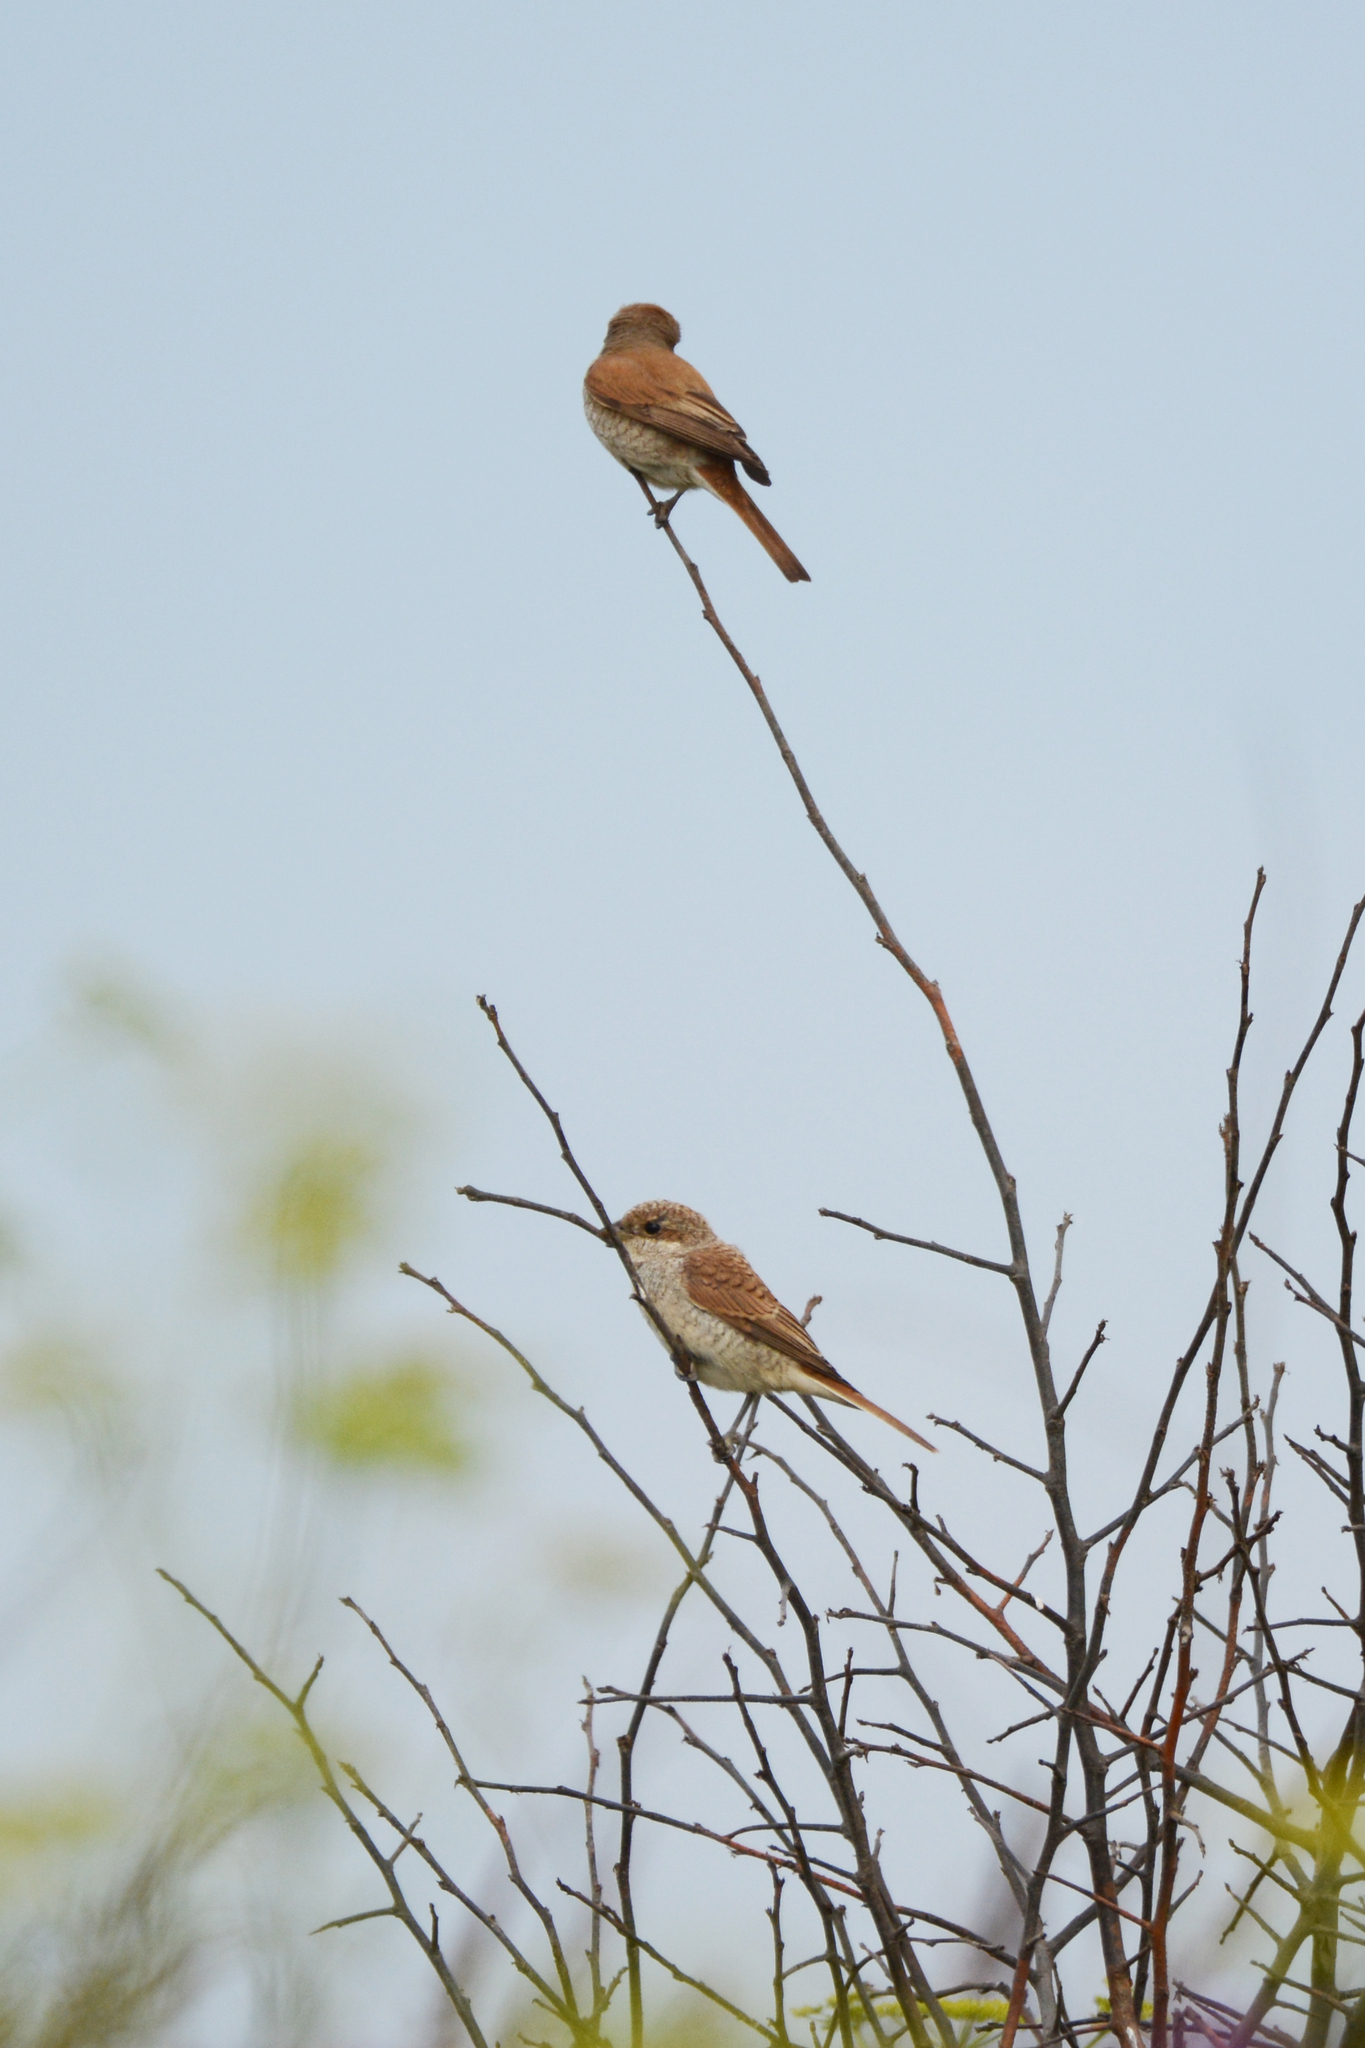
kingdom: Animalia
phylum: Chordata
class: Aves
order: Passeriformes
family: Laniidae
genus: Lanius
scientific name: Lanius collurio
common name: Red-backed shrike
